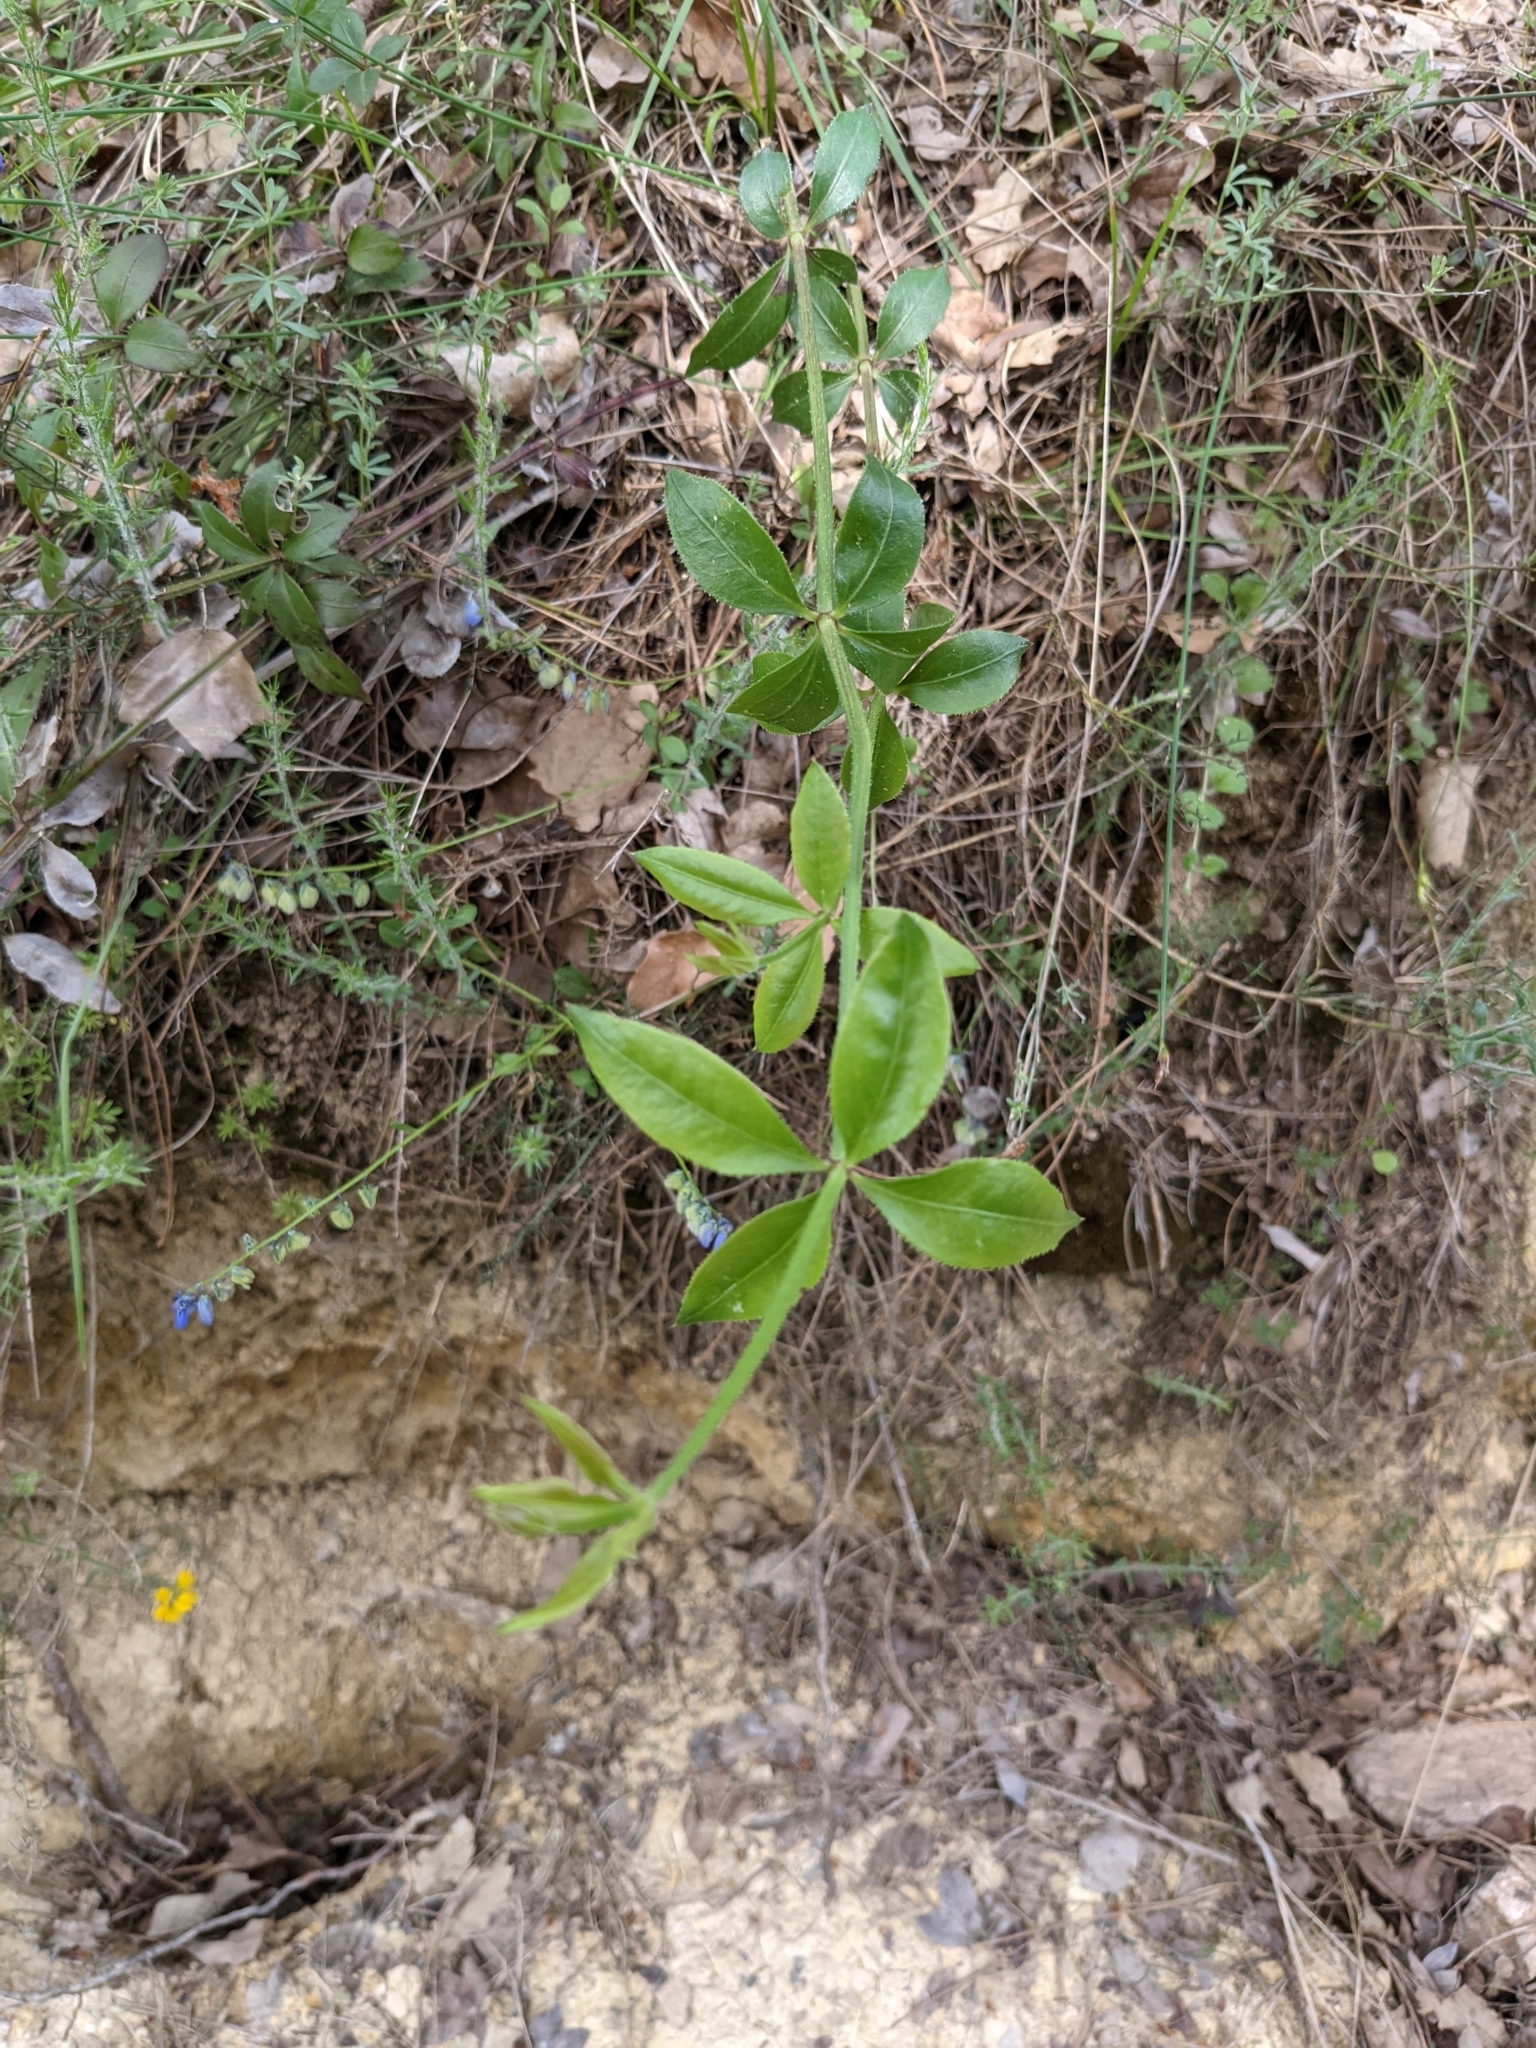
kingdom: Plantae
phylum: Tracheophyta
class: Magnoliopsida
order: Gentianales
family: Rubiaceae
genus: Rubia
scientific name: Rubia peregrina
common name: Wild madder
